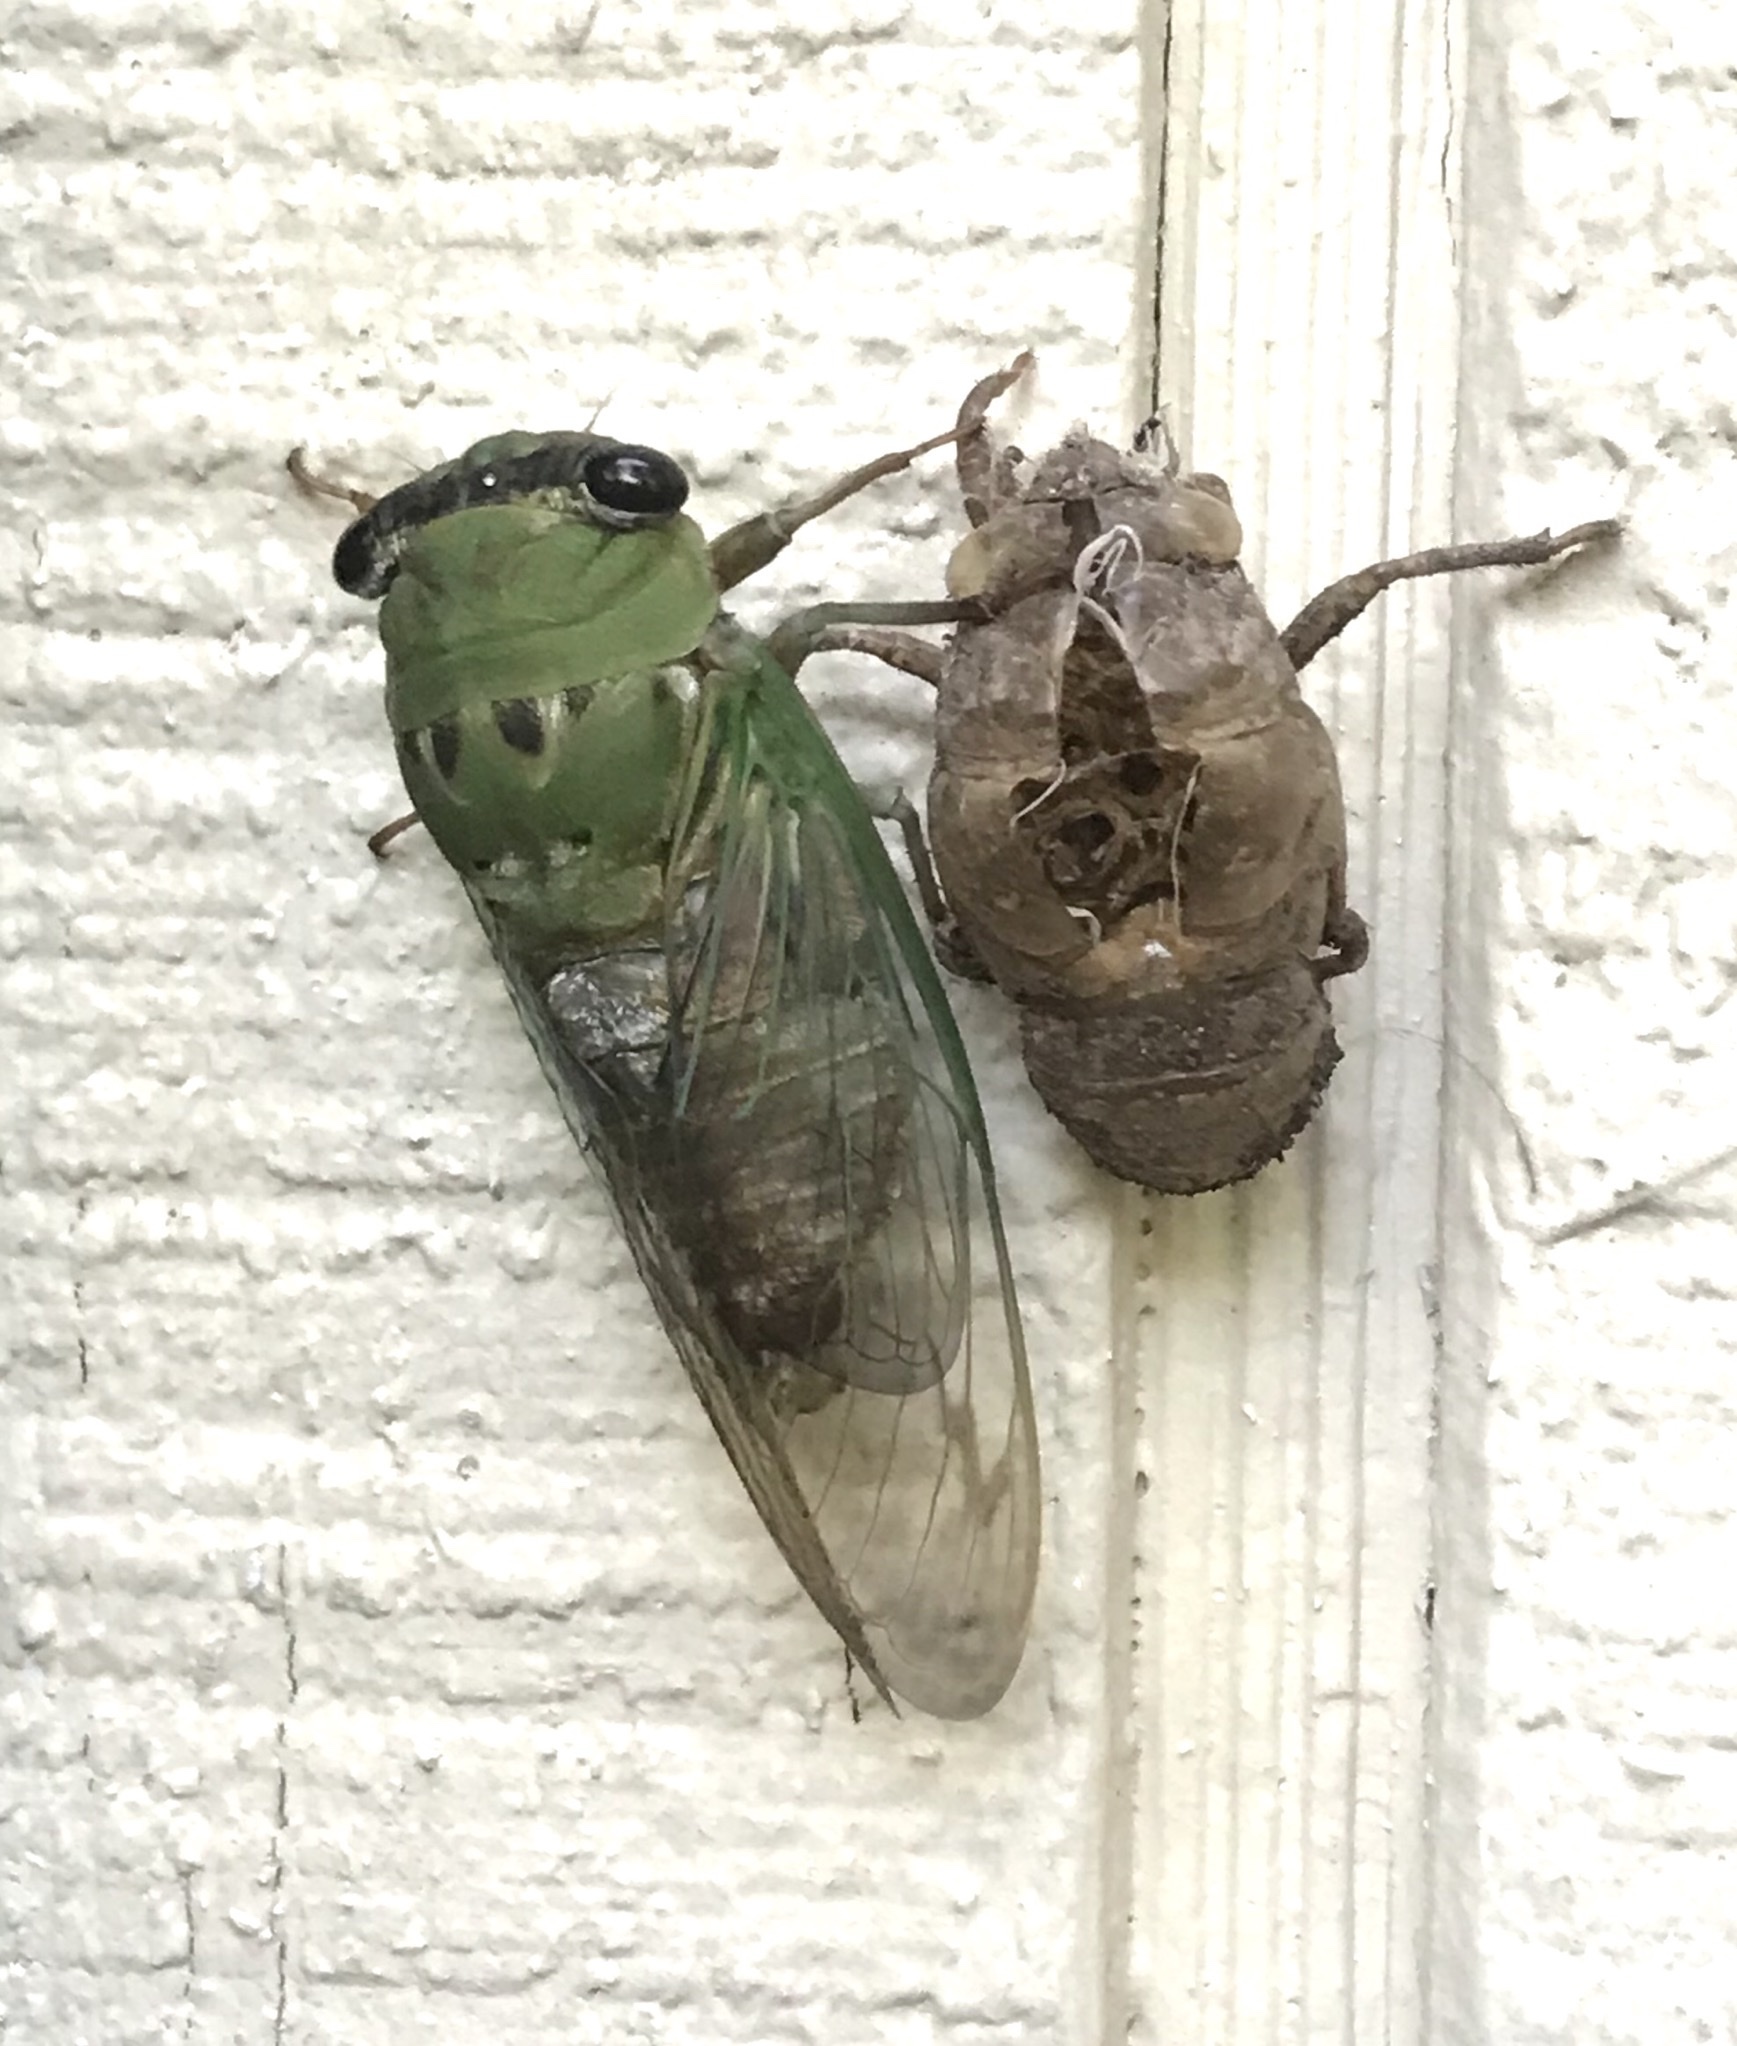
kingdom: Animalia
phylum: Arthropoda
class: Insecta
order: Hemiptera
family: Cicadidae
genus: Neotibicen
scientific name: Neotibicen superbus
